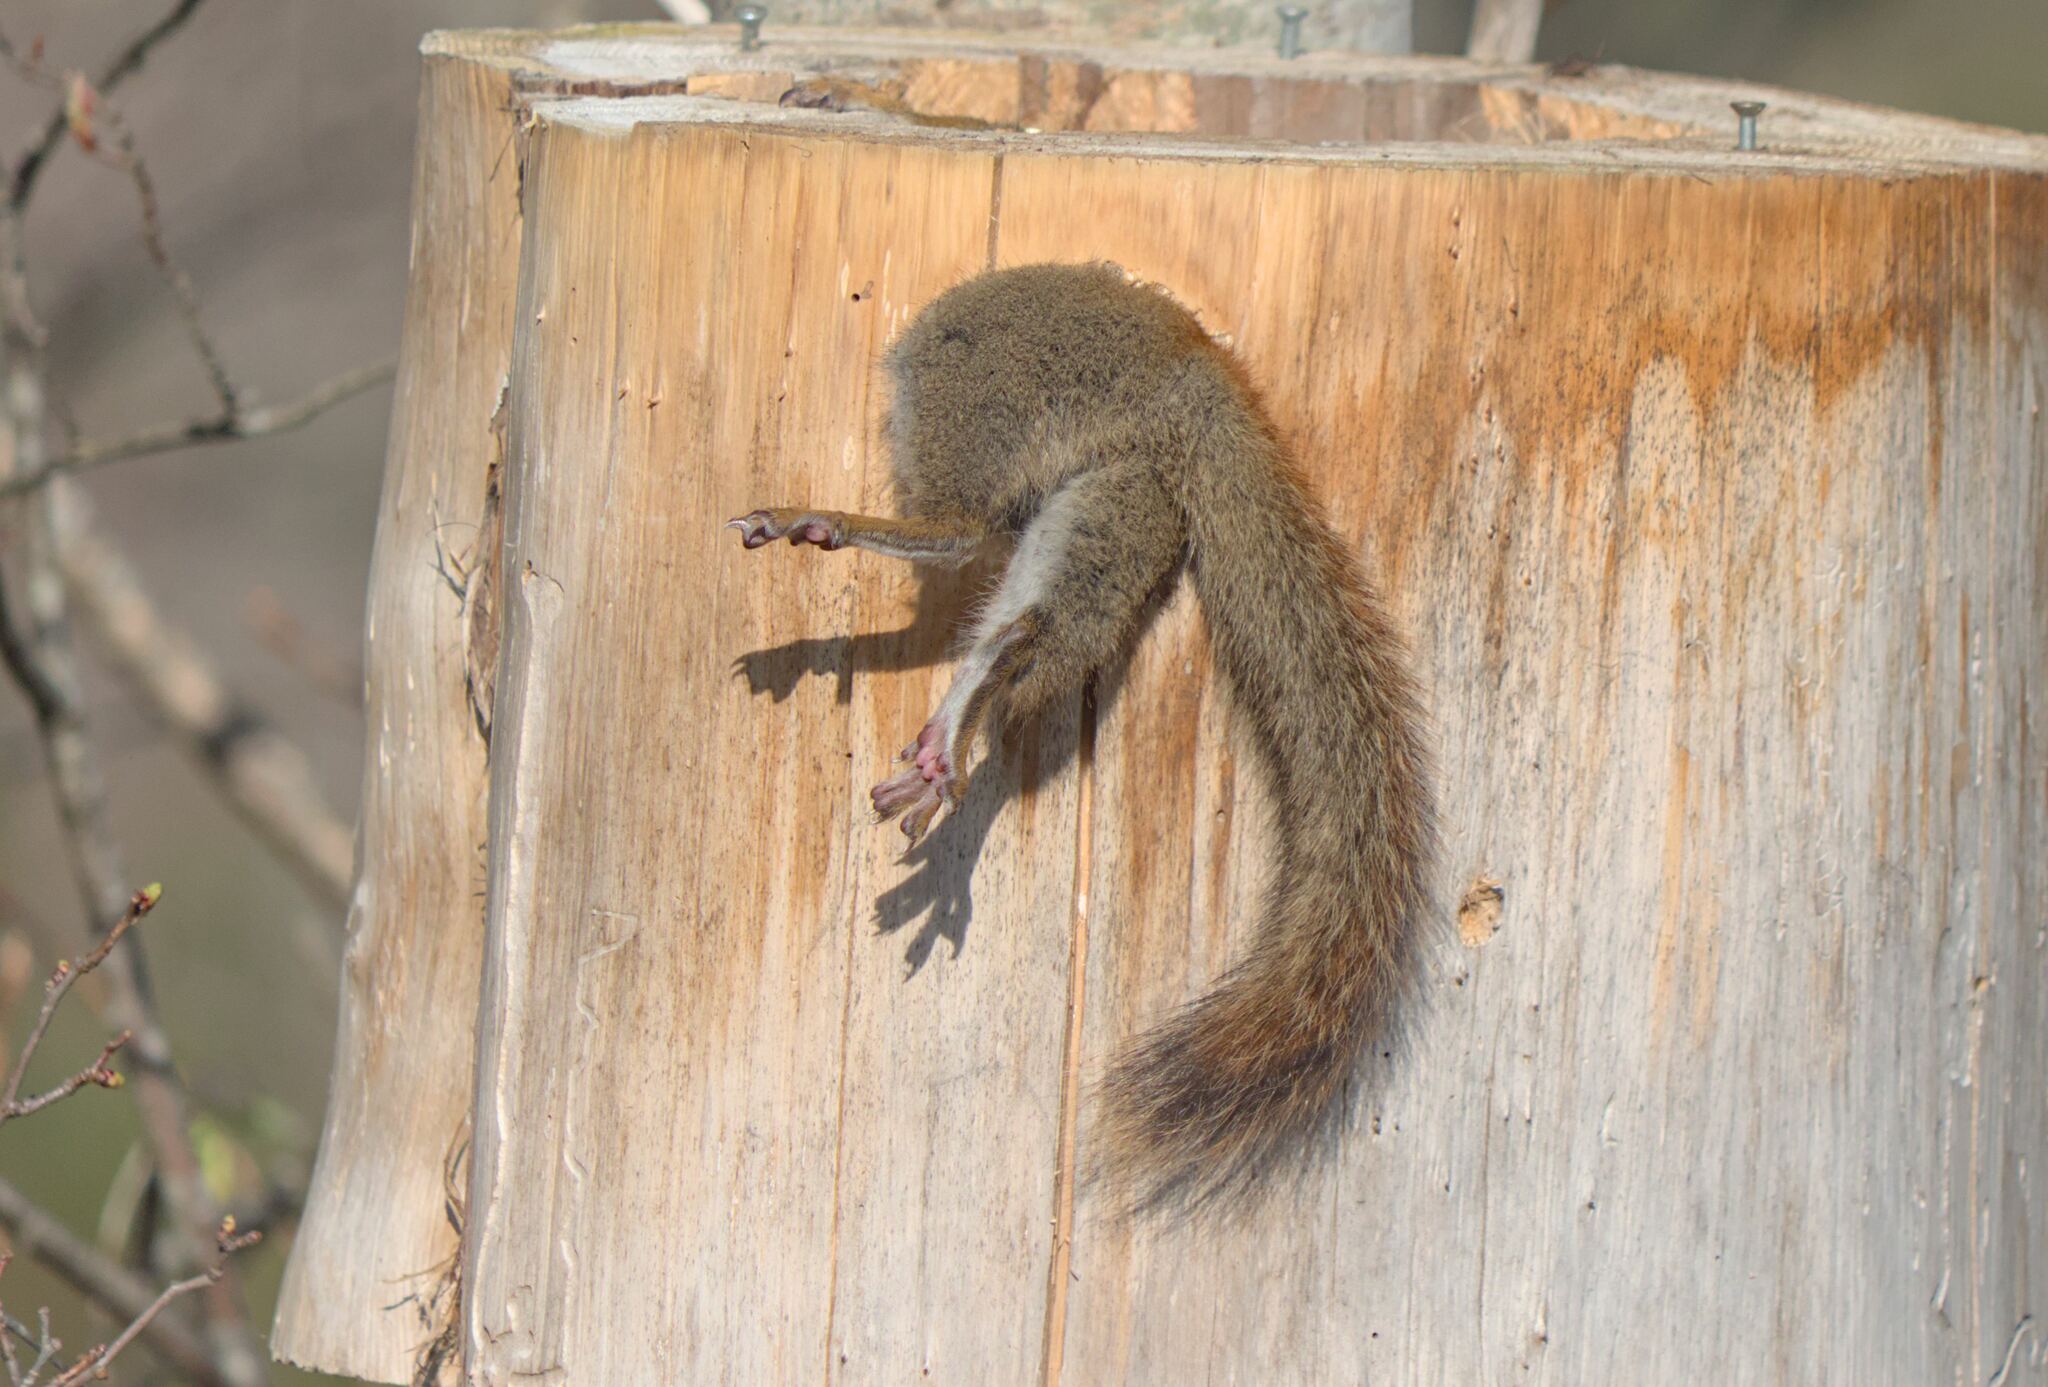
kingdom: Animalia
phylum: Chordata
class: Mammalia
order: Rodentia
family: Sciuridae
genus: Tamiasciurus
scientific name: Tamiasciurus hudsonicus
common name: Red squirrel
